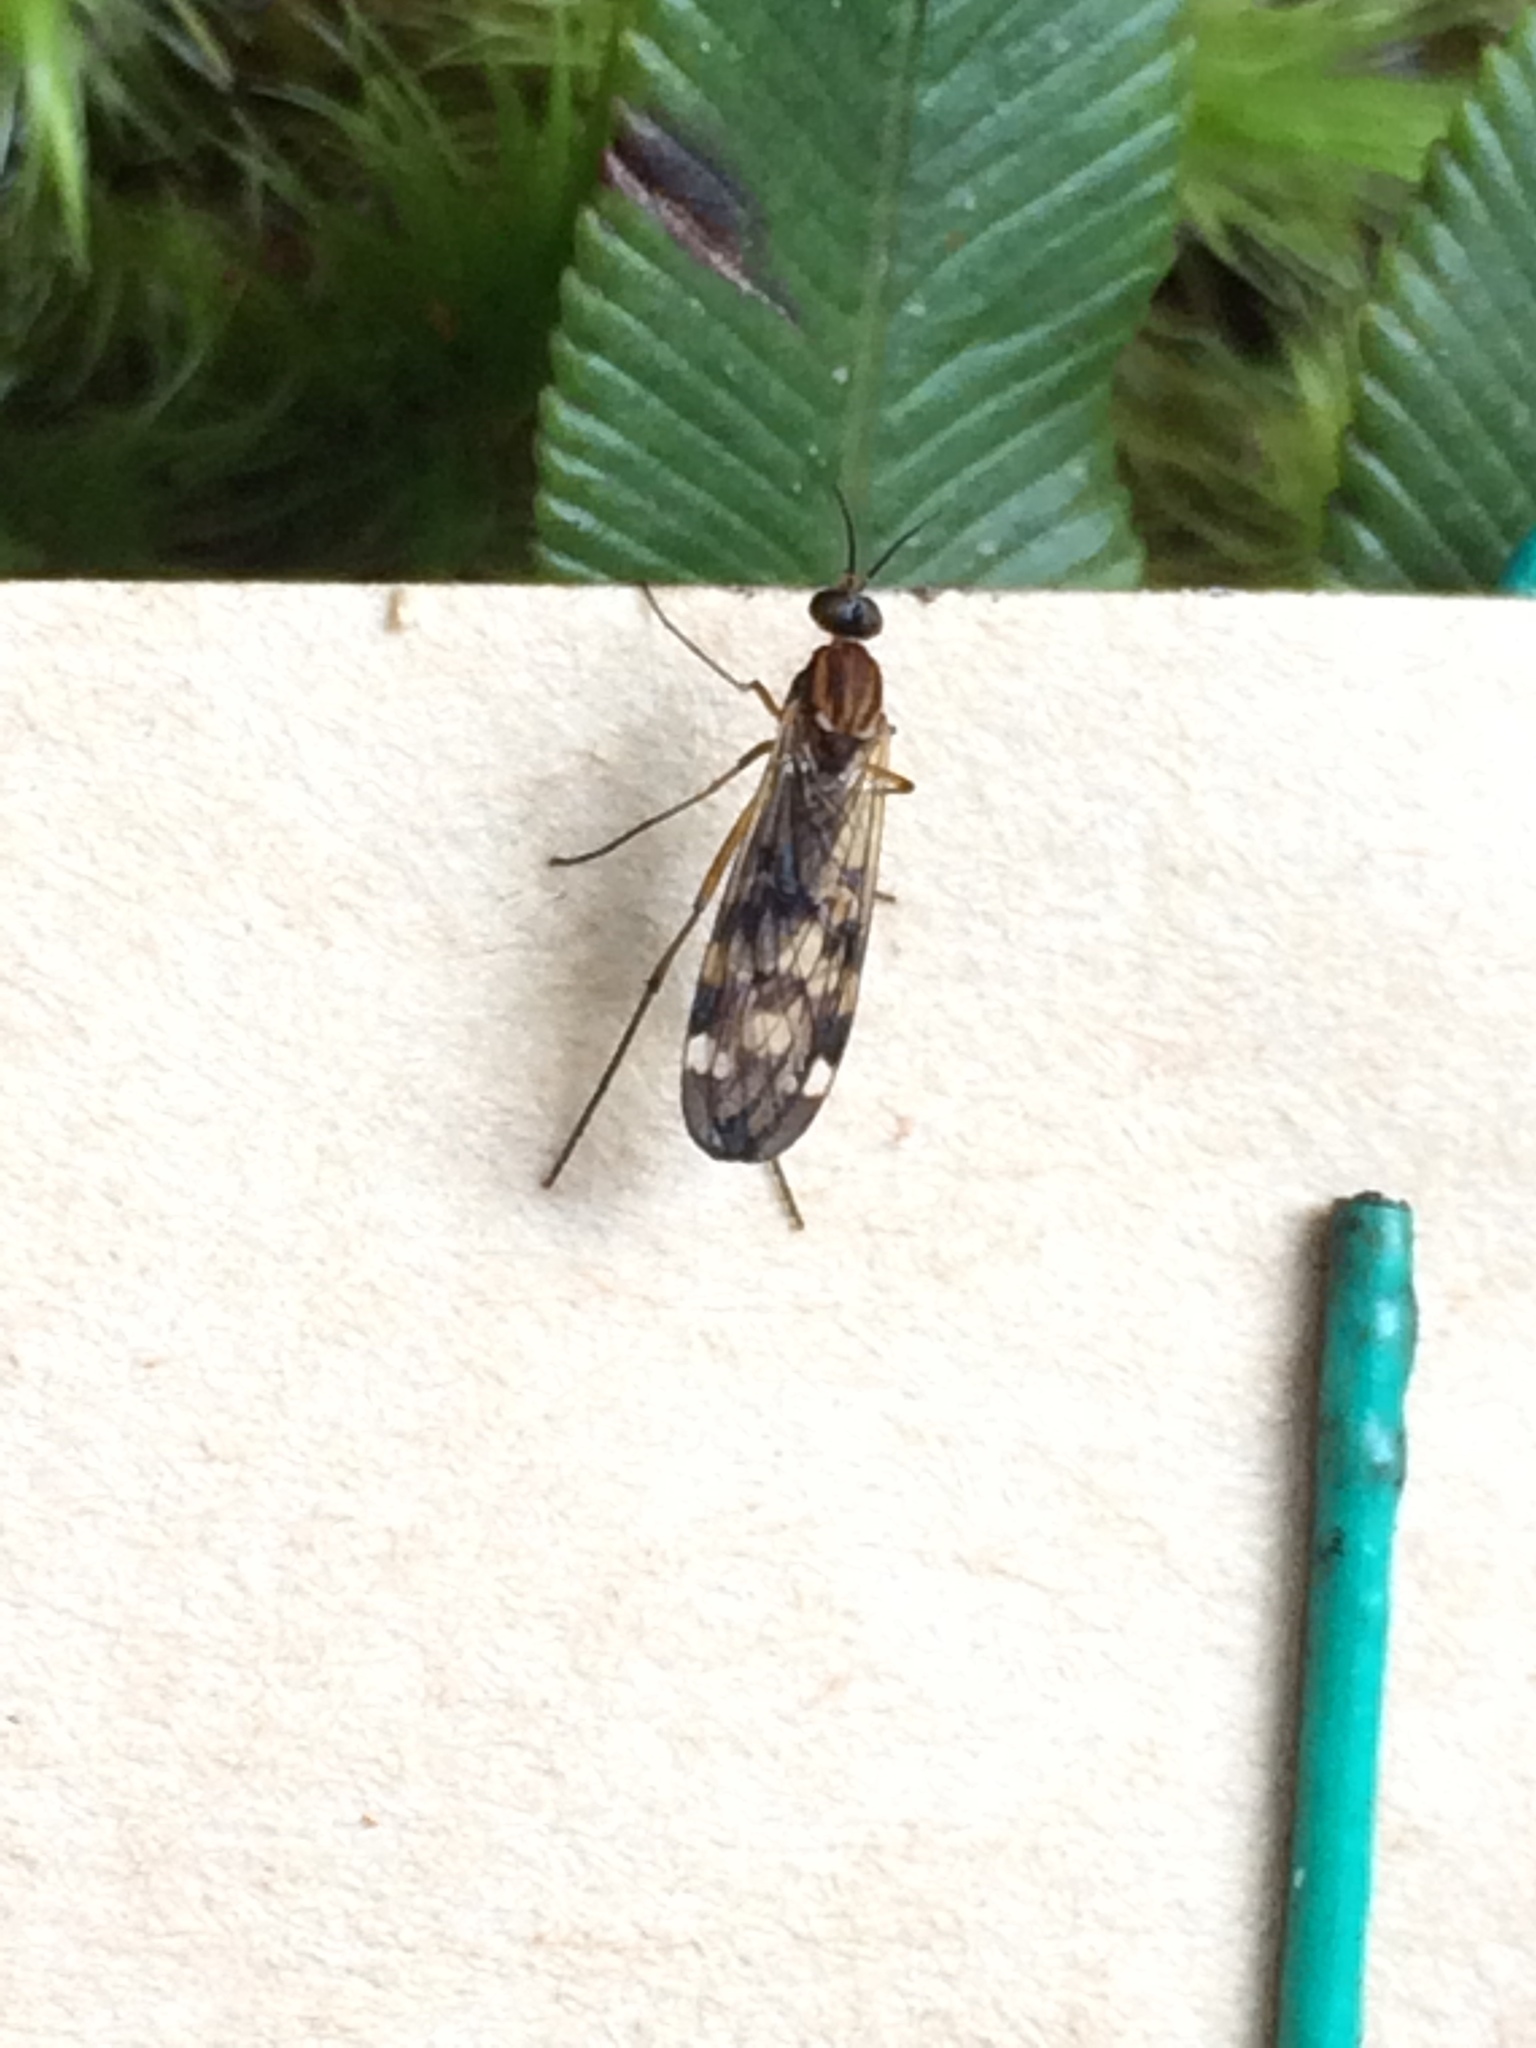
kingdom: Animalia
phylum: Arthropoda
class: Insecta
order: Diptera
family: Anisopodidae
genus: Sylvicola
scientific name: Sylvicola undulatus
